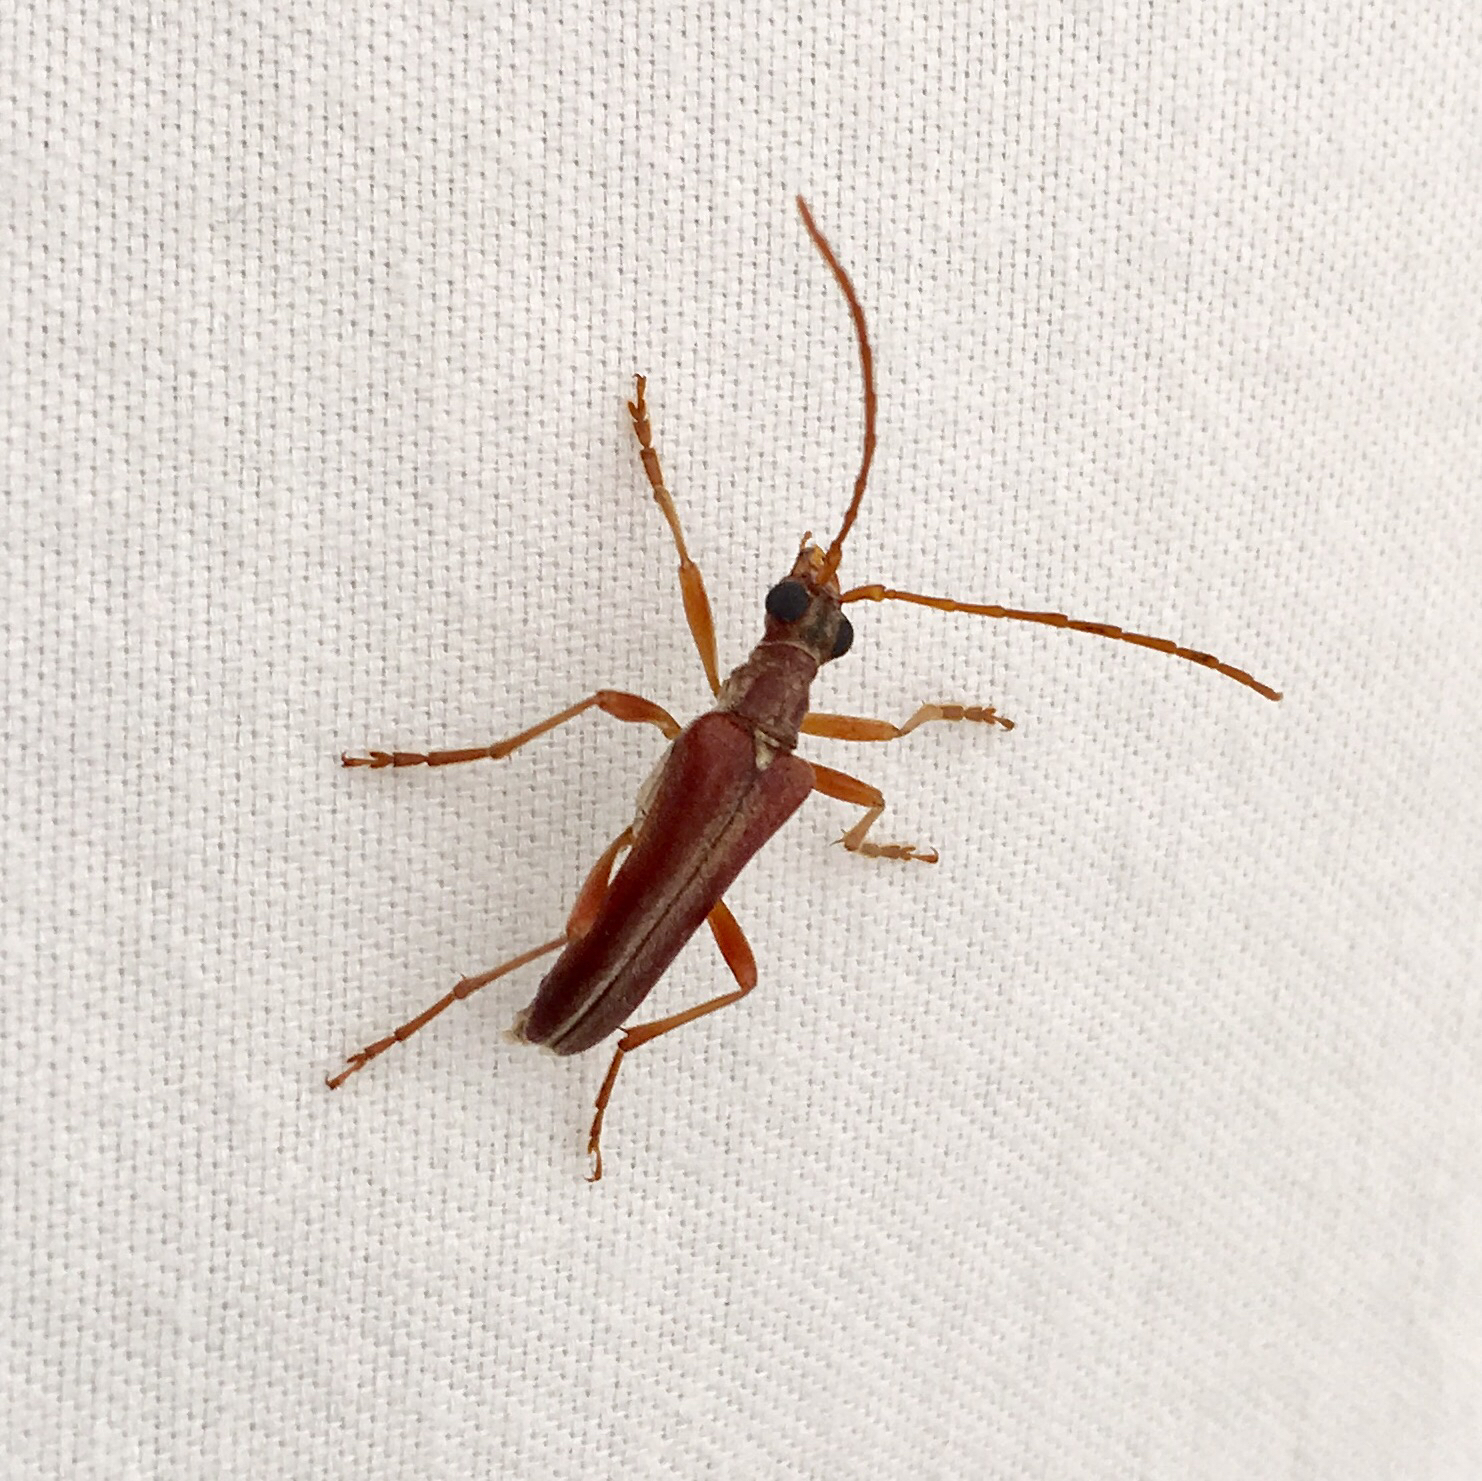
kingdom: Animalia
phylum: Arthropoda
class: Insecta
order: Coleoptera
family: Cerambycidae
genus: Stenocorus
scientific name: Stenocorus cinnamopterus
